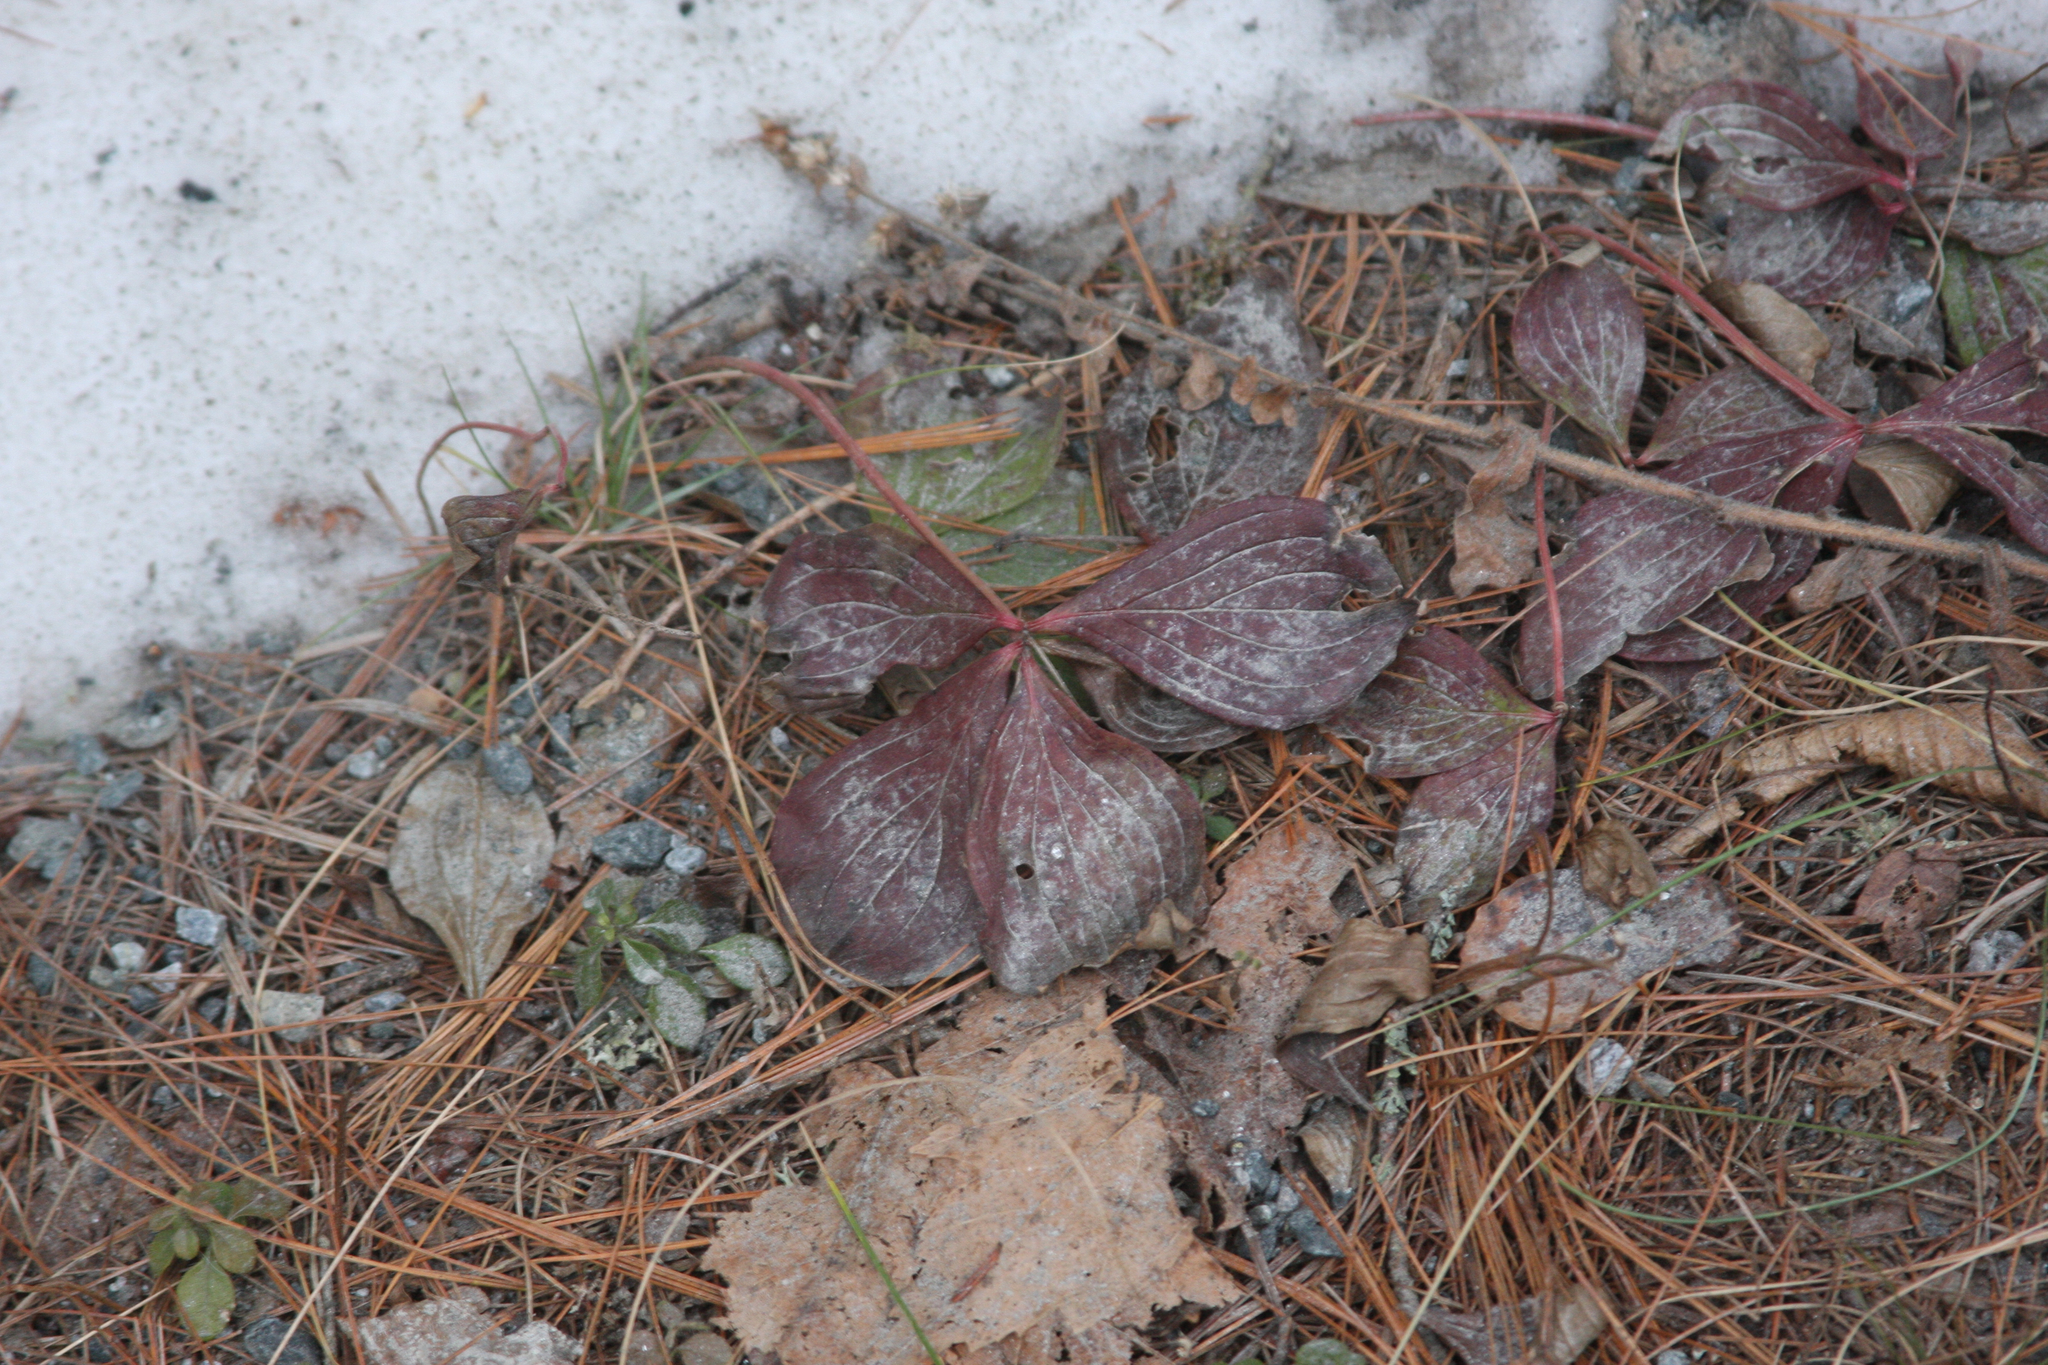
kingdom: Plantae
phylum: Tracheophyta
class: Magnoliopsida
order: Cornales
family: Cornaceae
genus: Cornus
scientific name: Cornus canadensis
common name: Creeping dogwood
